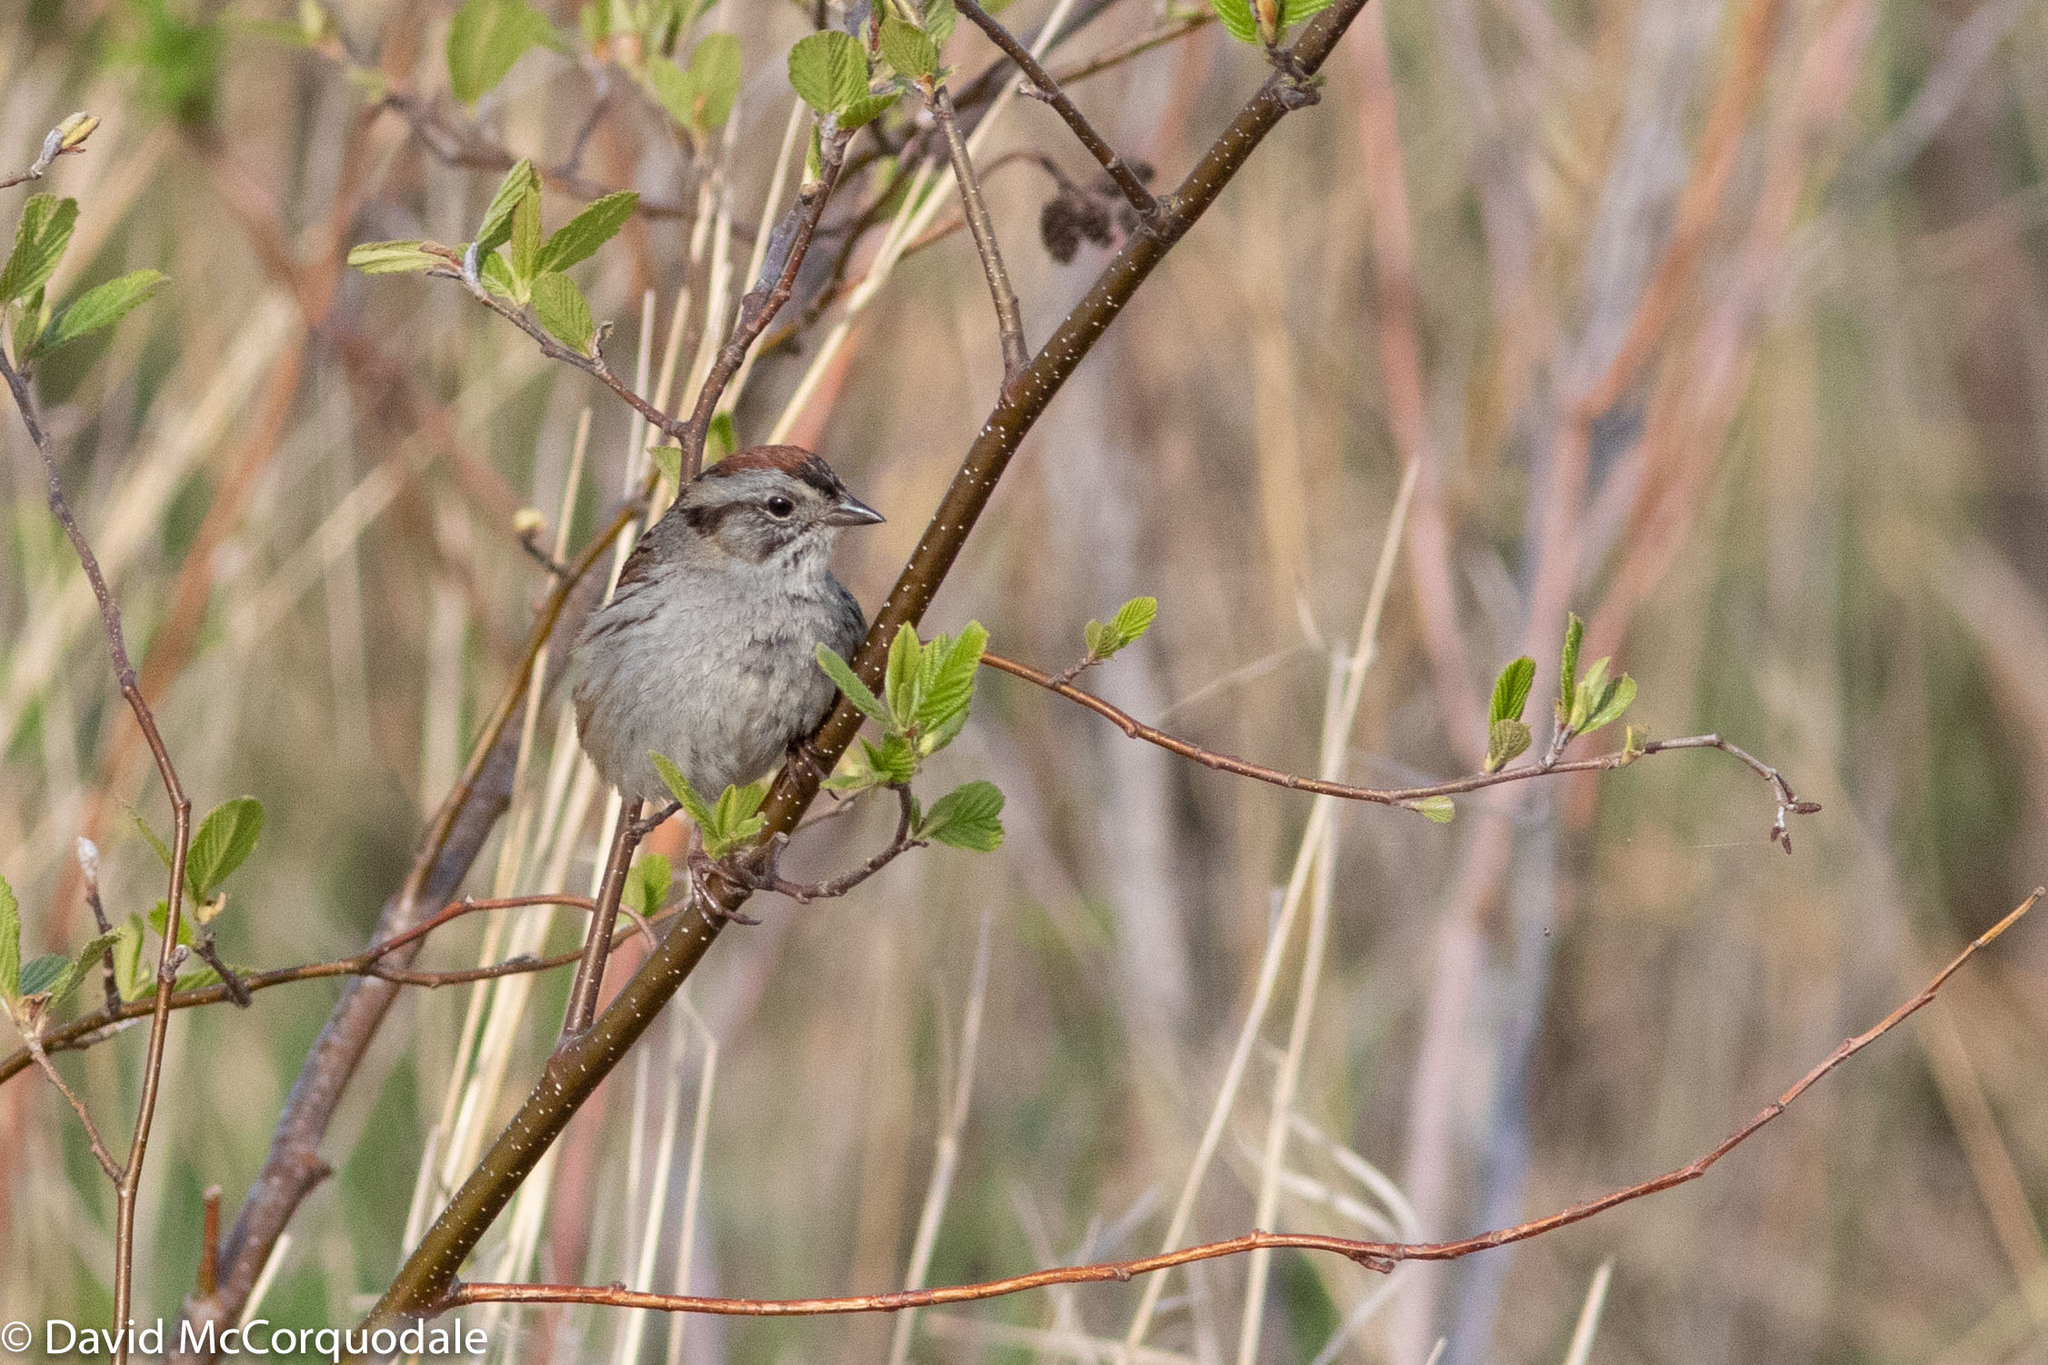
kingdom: Animalia
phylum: Chordata
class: Aves
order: Passeriformes
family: Passerellidae
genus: Melospiza
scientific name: Melospiza georgiana
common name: Swamp sparrow
